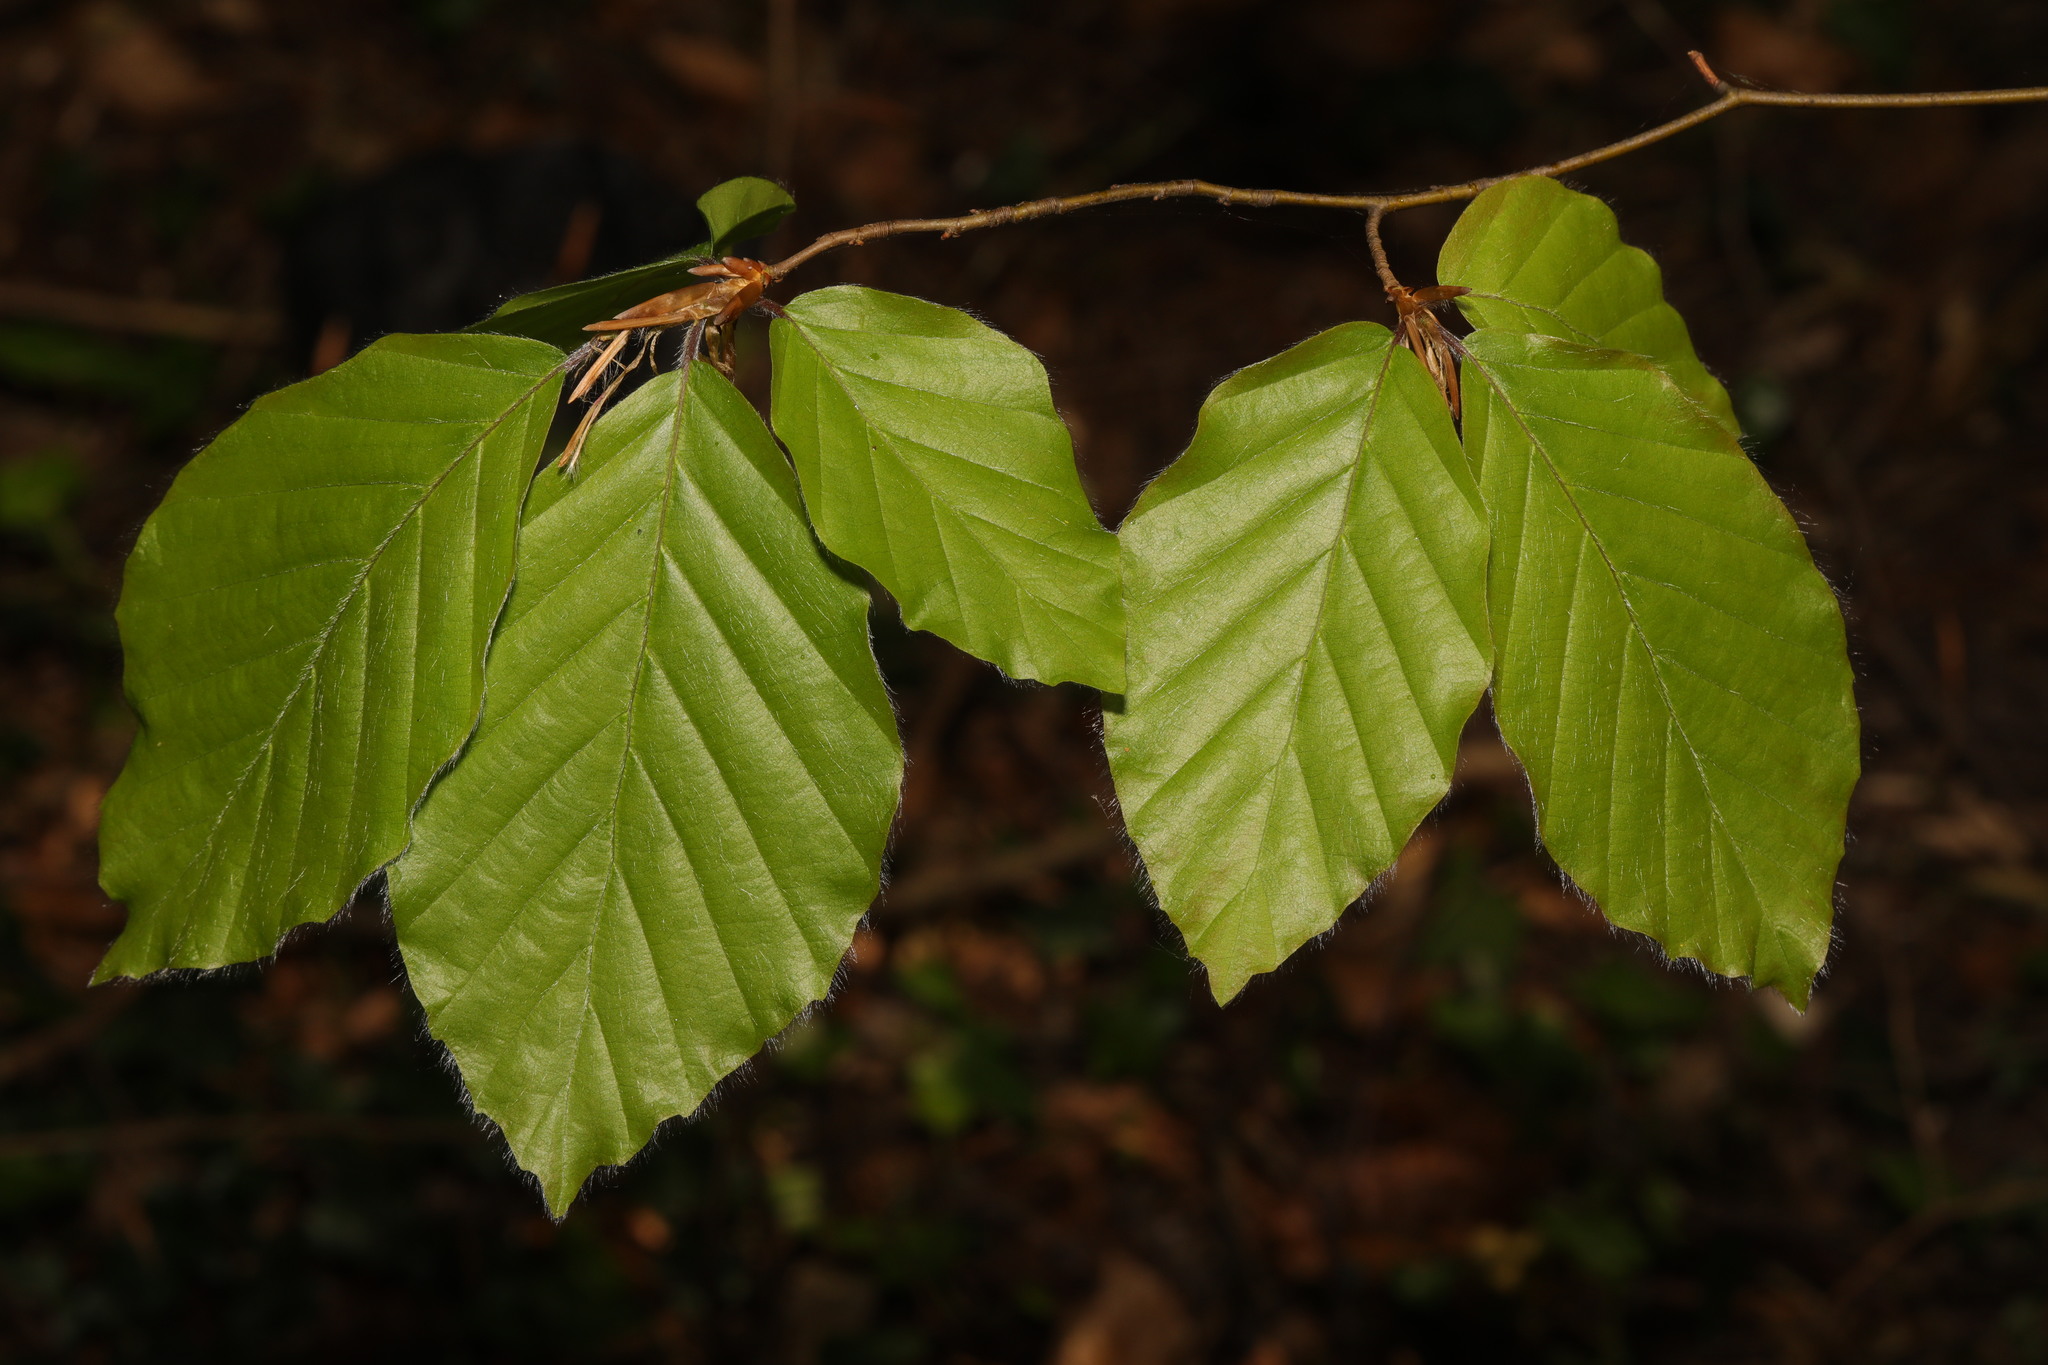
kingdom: Plantae
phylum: Tracheophyta
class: Magnoliopsida
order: Fagales
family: Fagaceae
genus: Fagus
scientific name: Fagus sylvatica
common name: Beech
